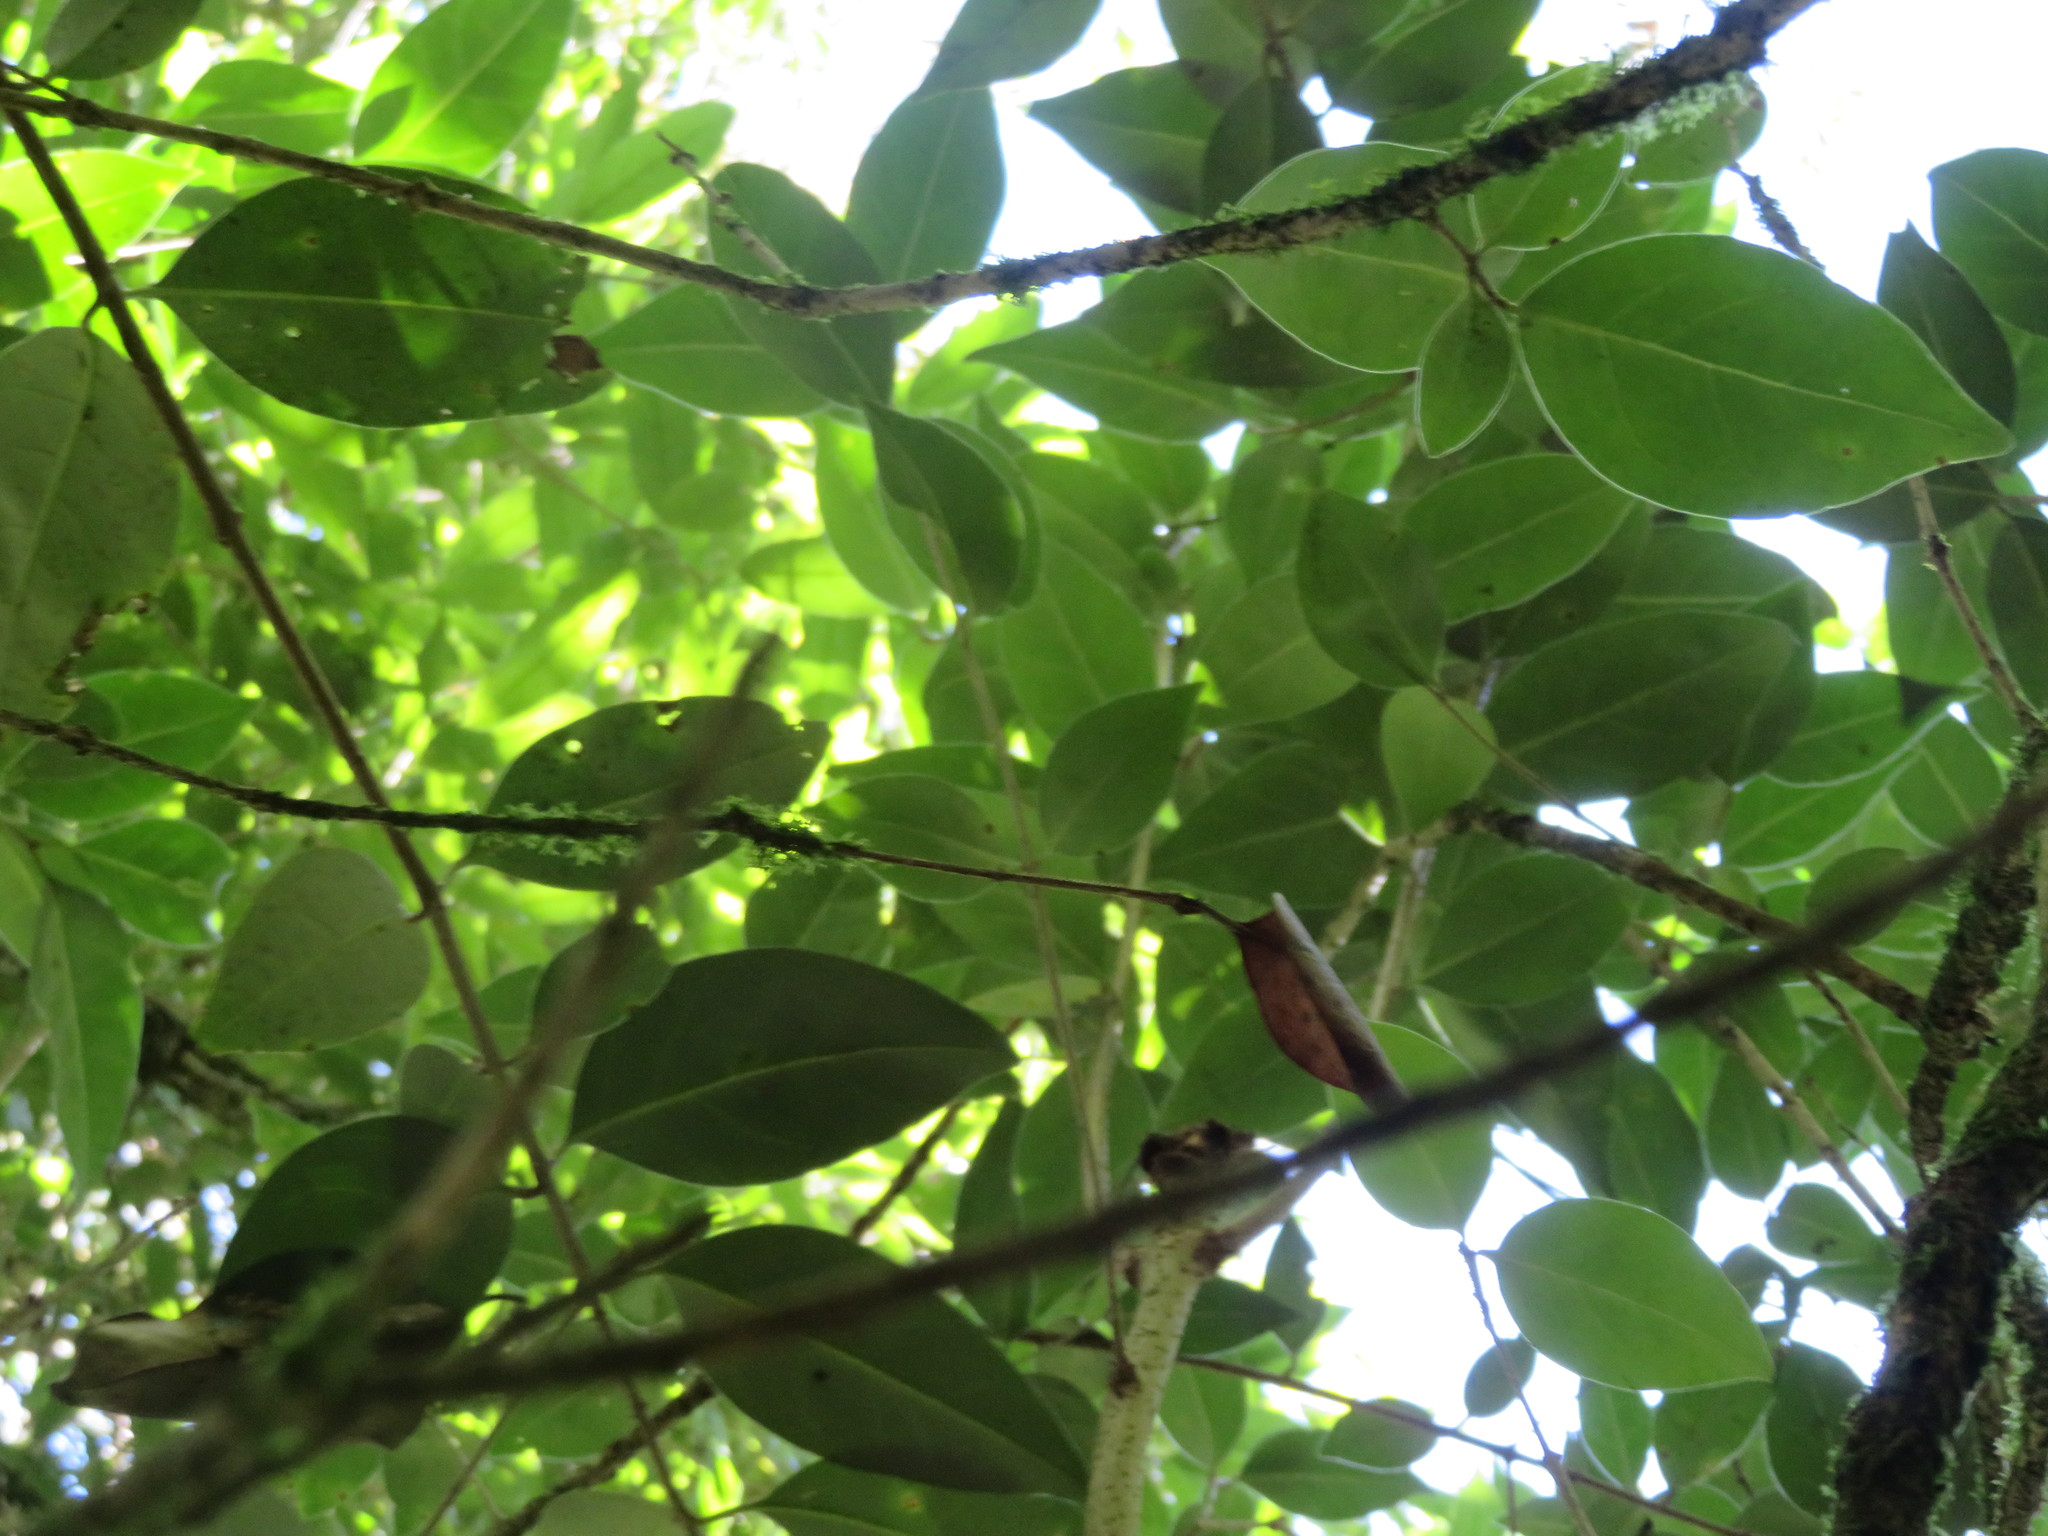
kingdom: Plantae
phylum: Tracheophyta
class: Magnoliopsida
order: Lamiales
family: Oleaceae
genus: Ligustrum
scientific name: Ligustrum lucidum
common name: Glossy privet
